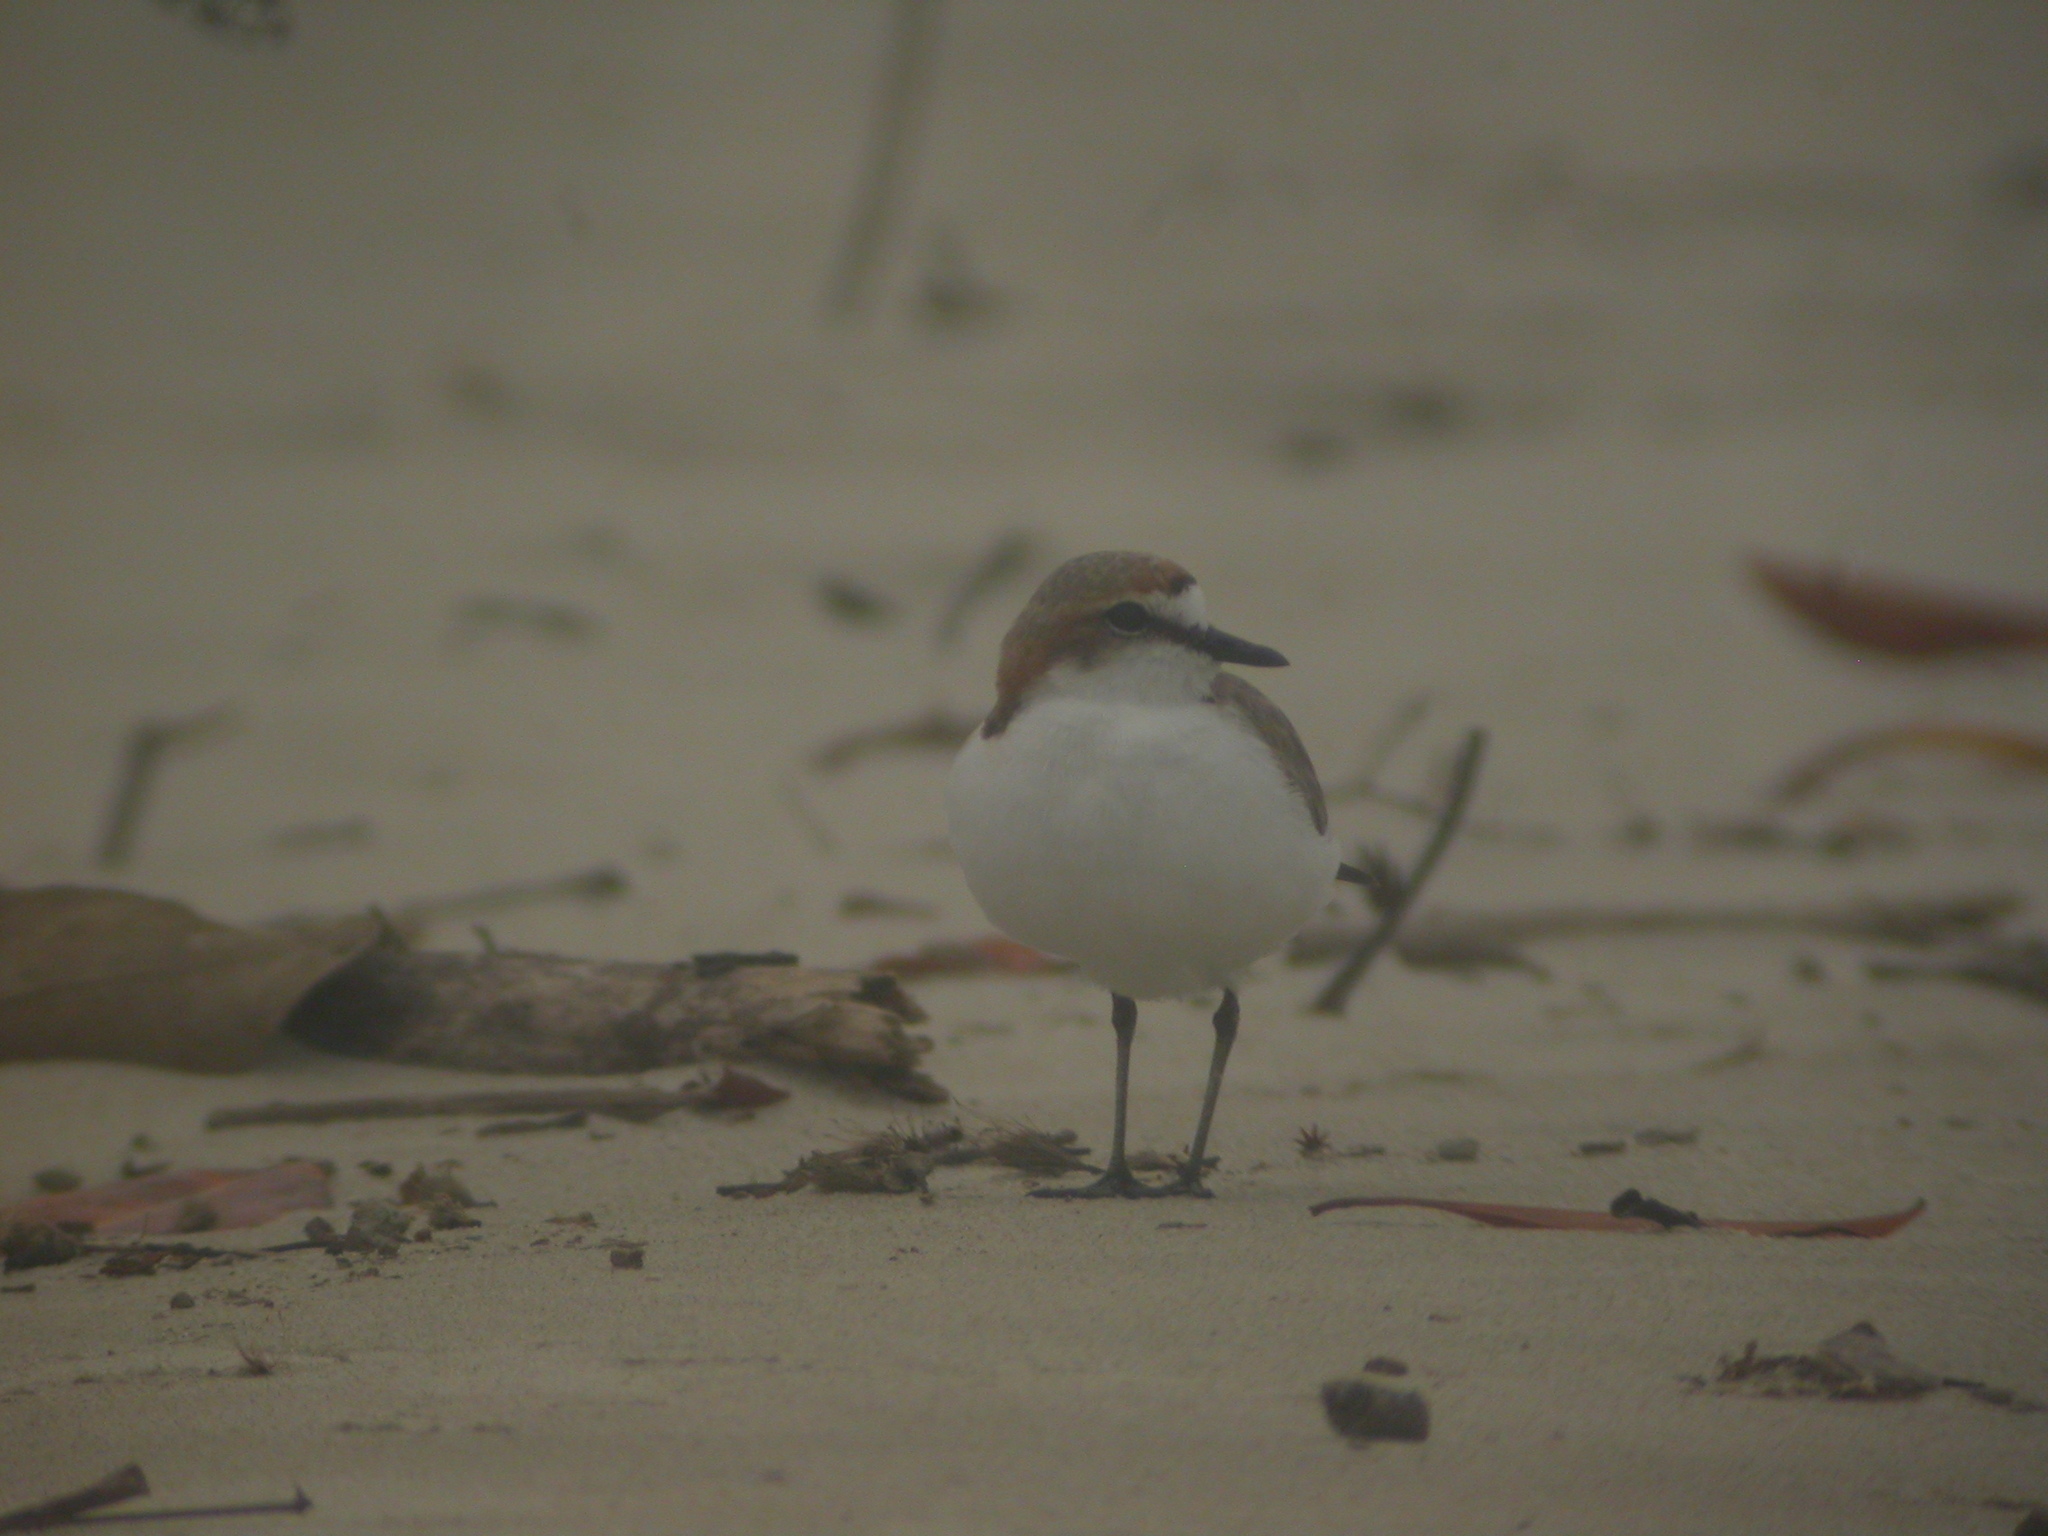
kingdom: Animalia
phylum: Chordata
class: Aves
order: Charadriiformes
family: Charadriidae
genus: Anarhynchus
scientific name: Anarhynchus
